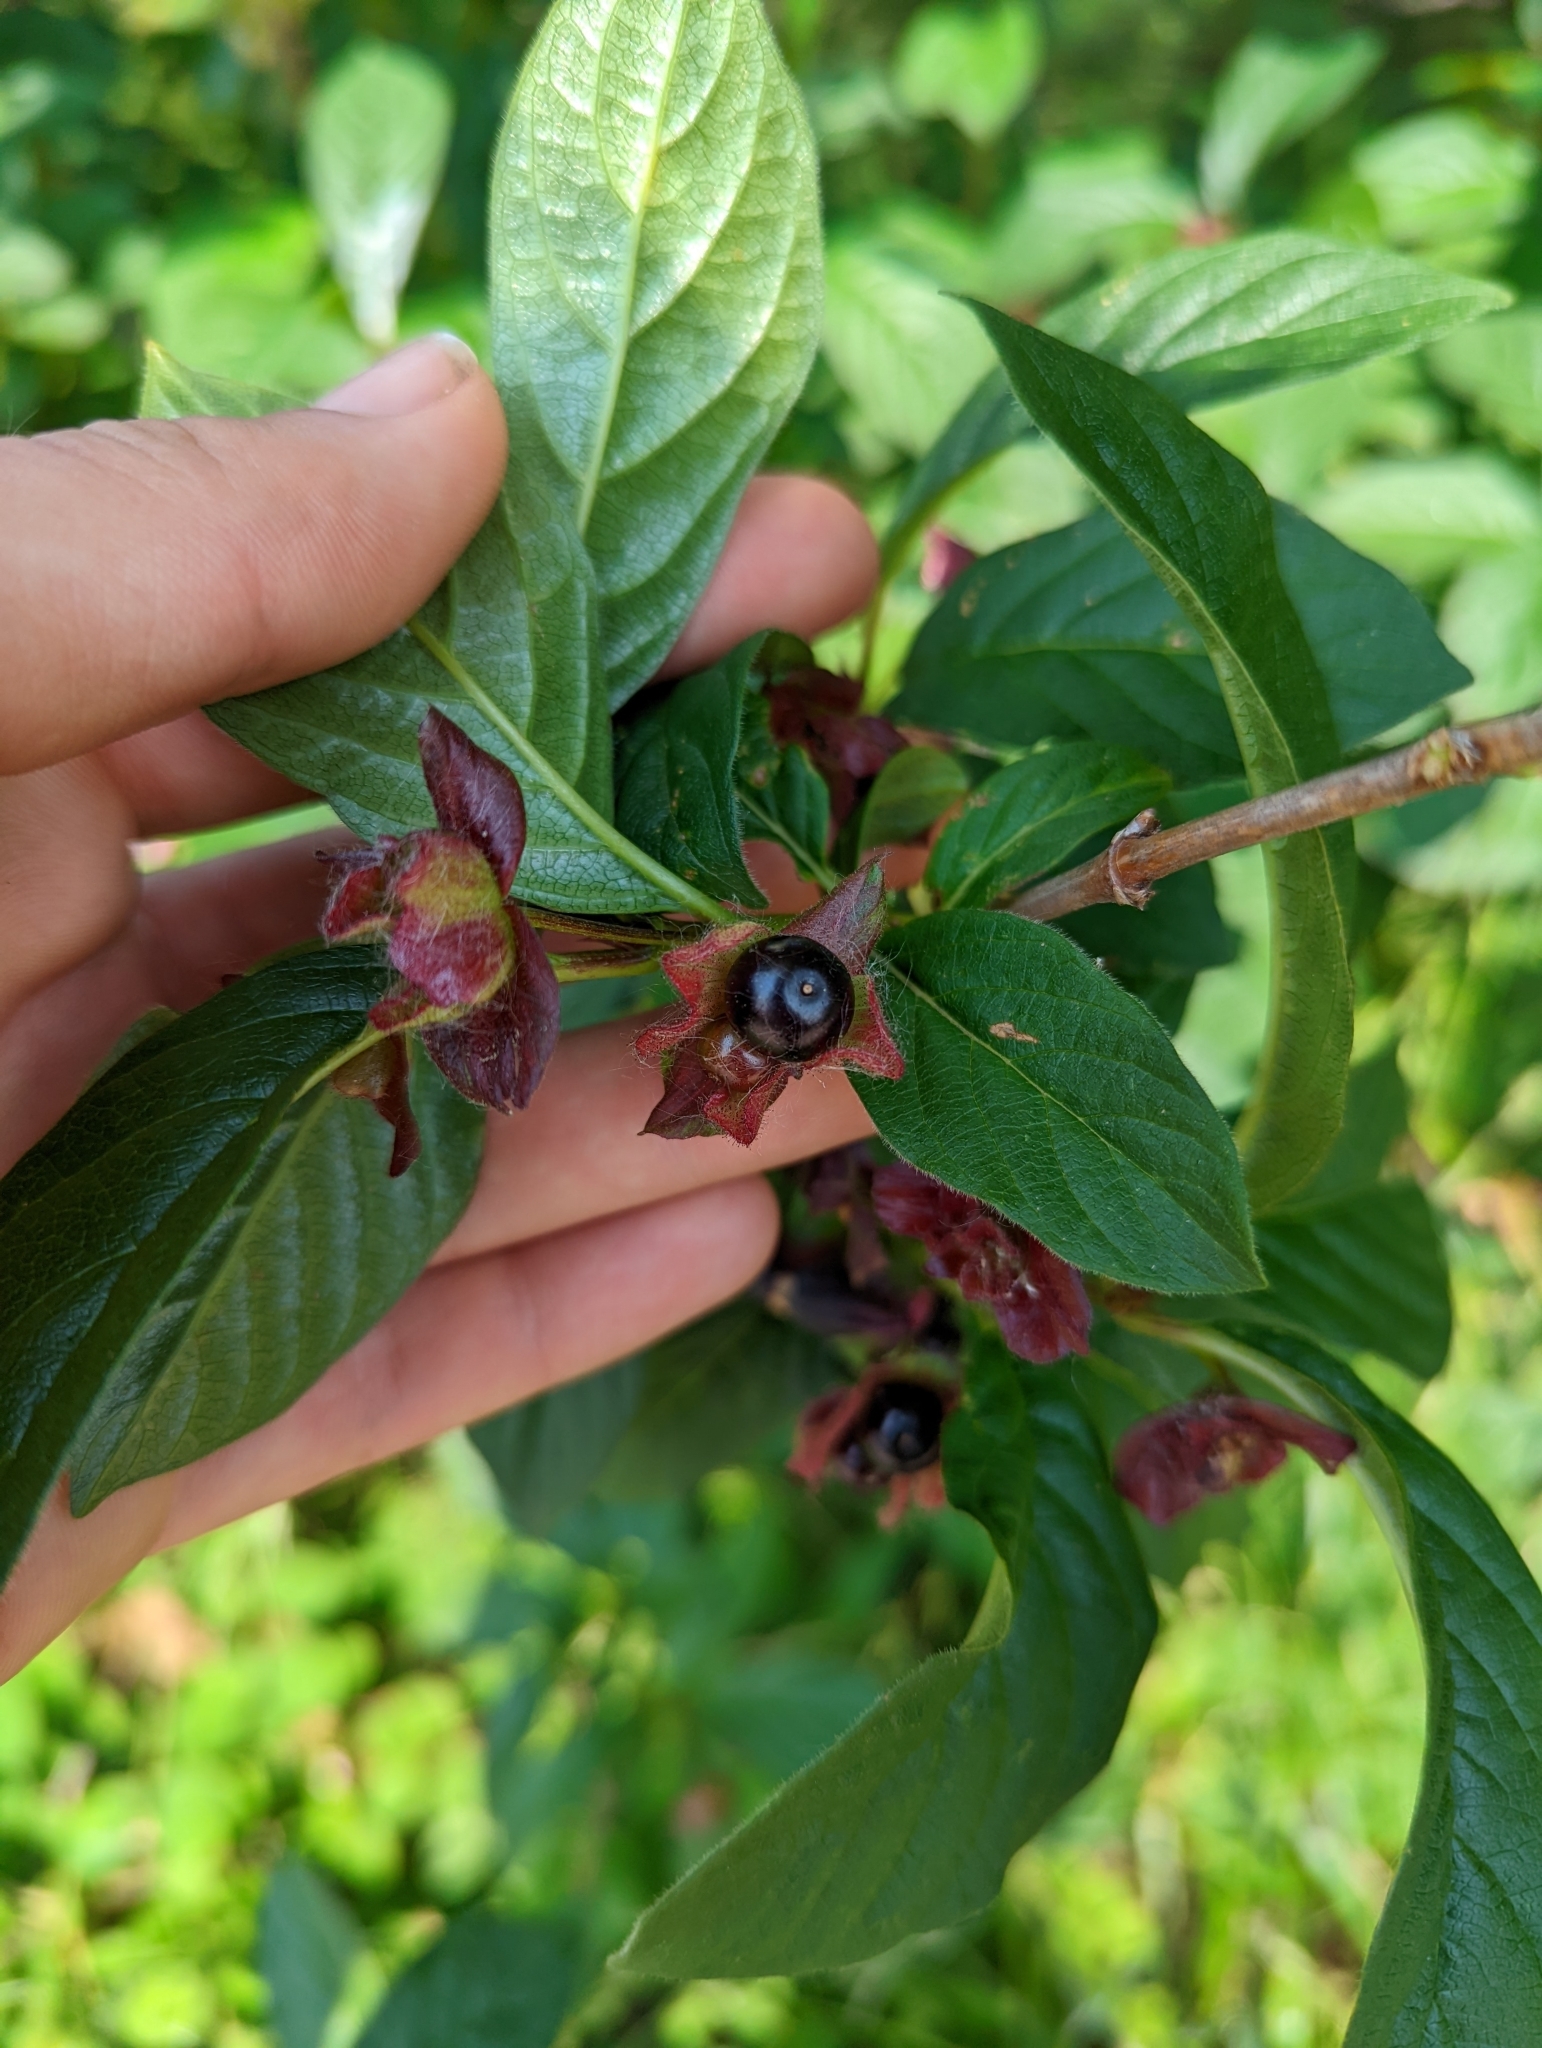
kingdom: Plantae
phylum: Tracheophyta
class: Magnoliopsida
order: Dipsacales
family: Caprifoliaceae
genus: Lonicera
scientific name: Lonicera involucrata
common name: Californian honeysuckle
